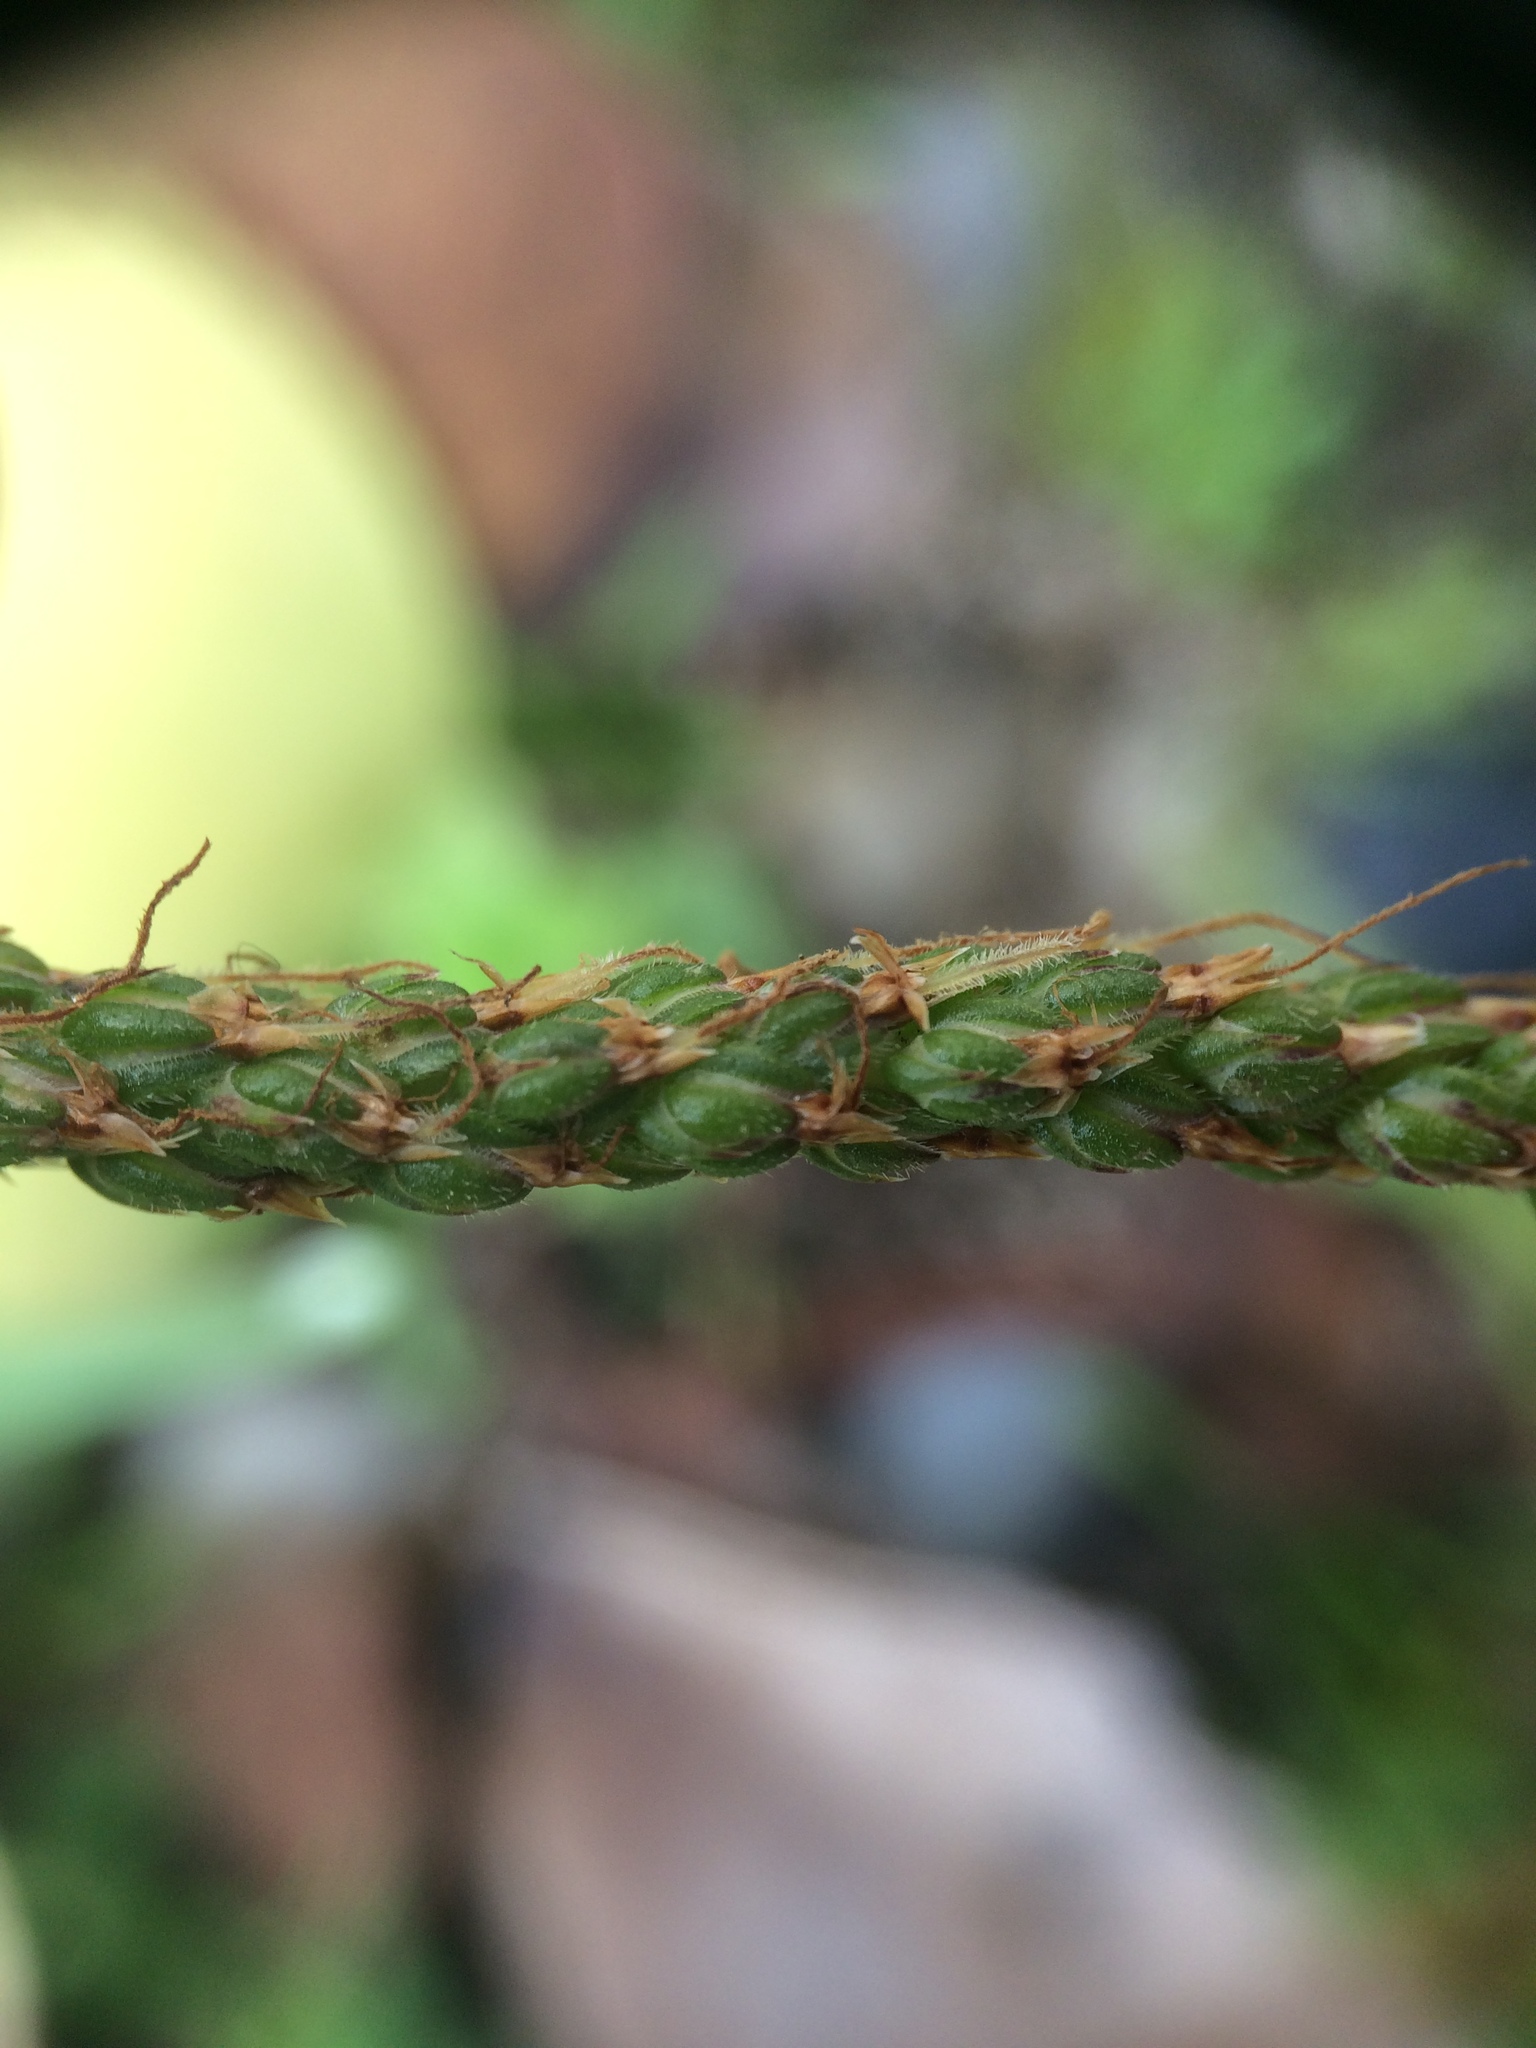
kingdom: Plantae
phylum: Tracheophyta
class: Magnoliopsida
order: Lamiales
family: Plantaginaceae
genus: Plantago
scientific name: Plantago coronopus
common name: Buck's-horn plantain
